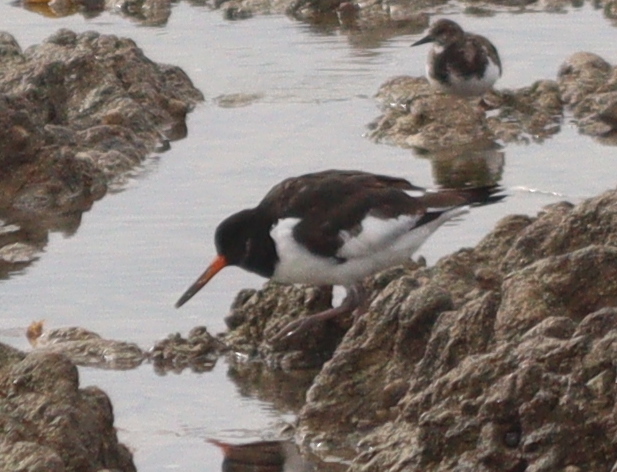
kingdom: Animalia
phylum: Chordata
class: Aves
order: Charadriiformes
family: Haematopodidae
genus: Haematopus
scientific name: Haematopus ostralegus
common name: Eurasian oystercatcher
